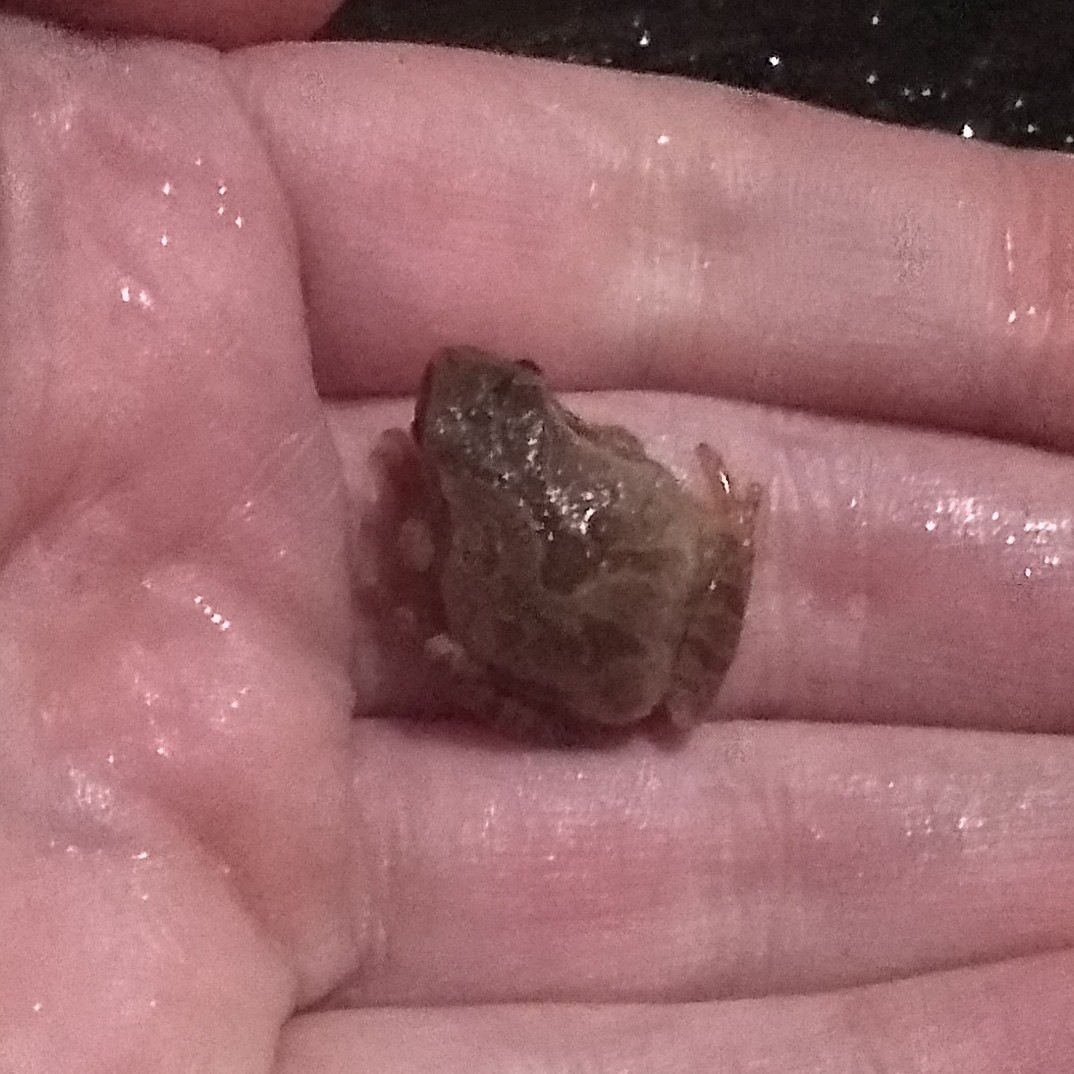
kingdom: Animalia
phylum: Chordata
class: Amphibia
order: Anura
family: Hylidae
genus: Pseudacris
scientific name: Pseudacris crucifer
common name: Spring peeper
